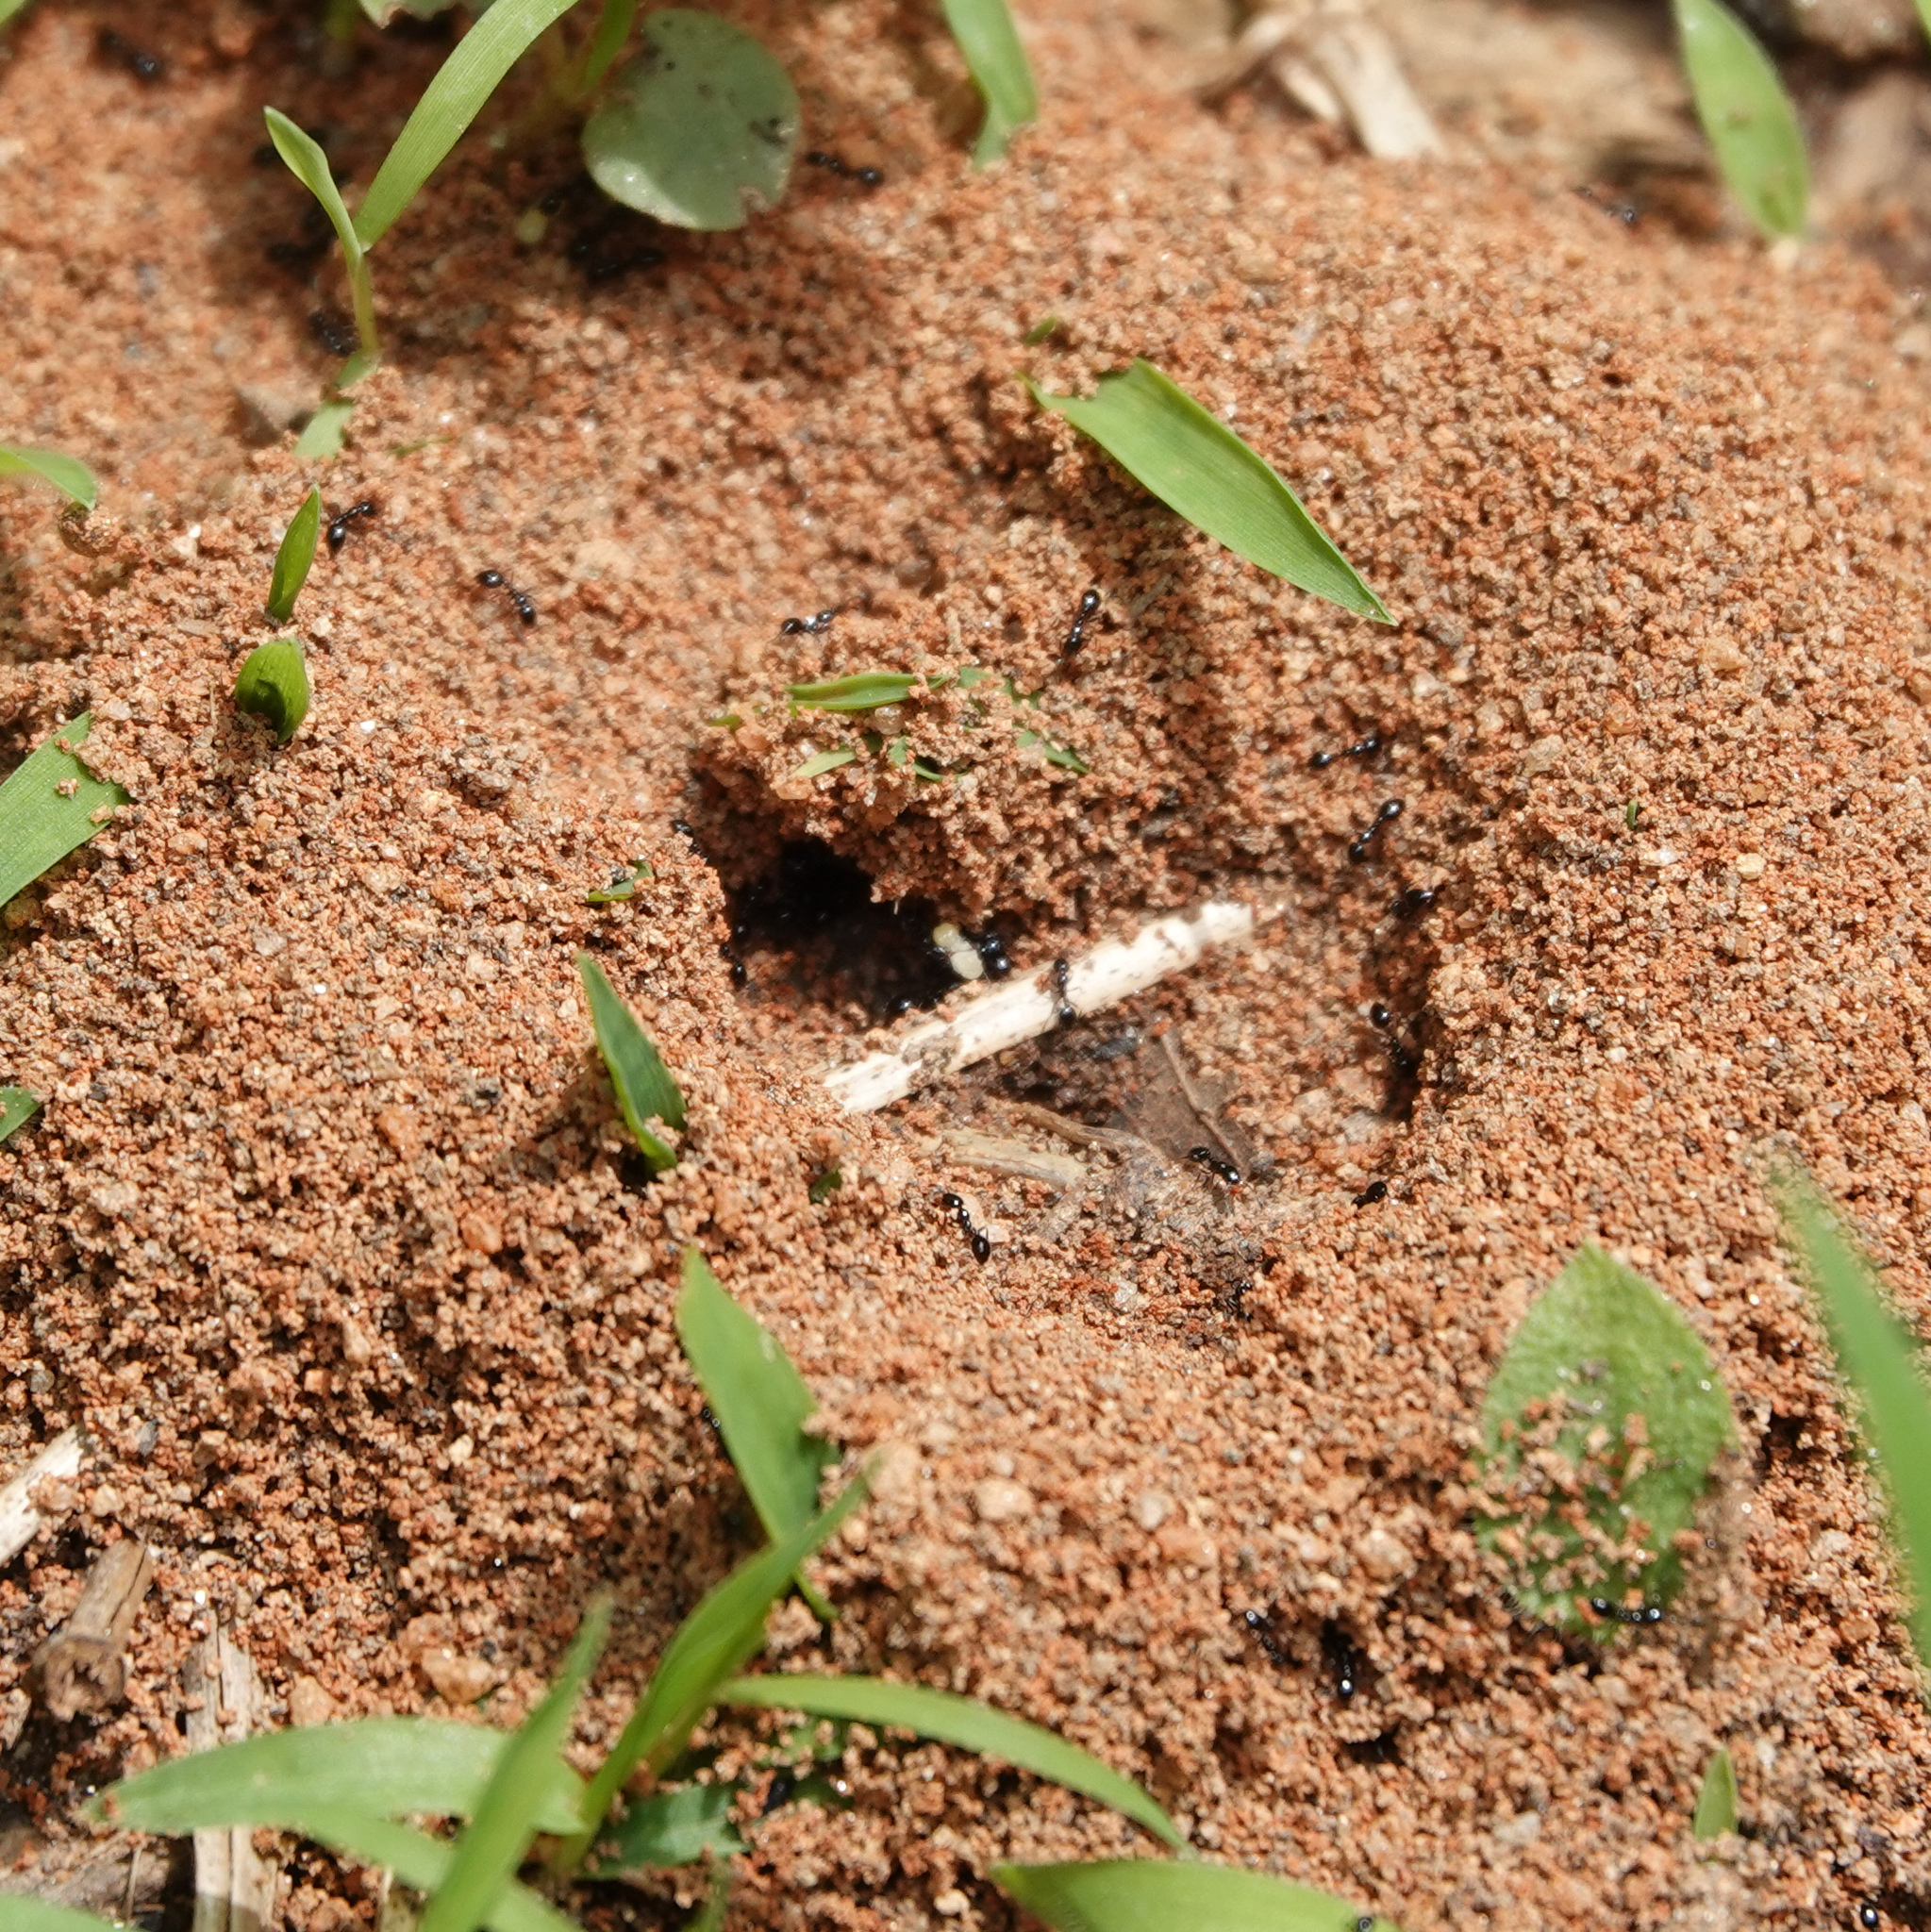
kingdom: Animalia
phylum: Arthropoda
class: Insecta
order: Hymenoptera
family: Formicidae
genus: Monomorium
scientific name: Monomorium minimum
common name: Little black ant
